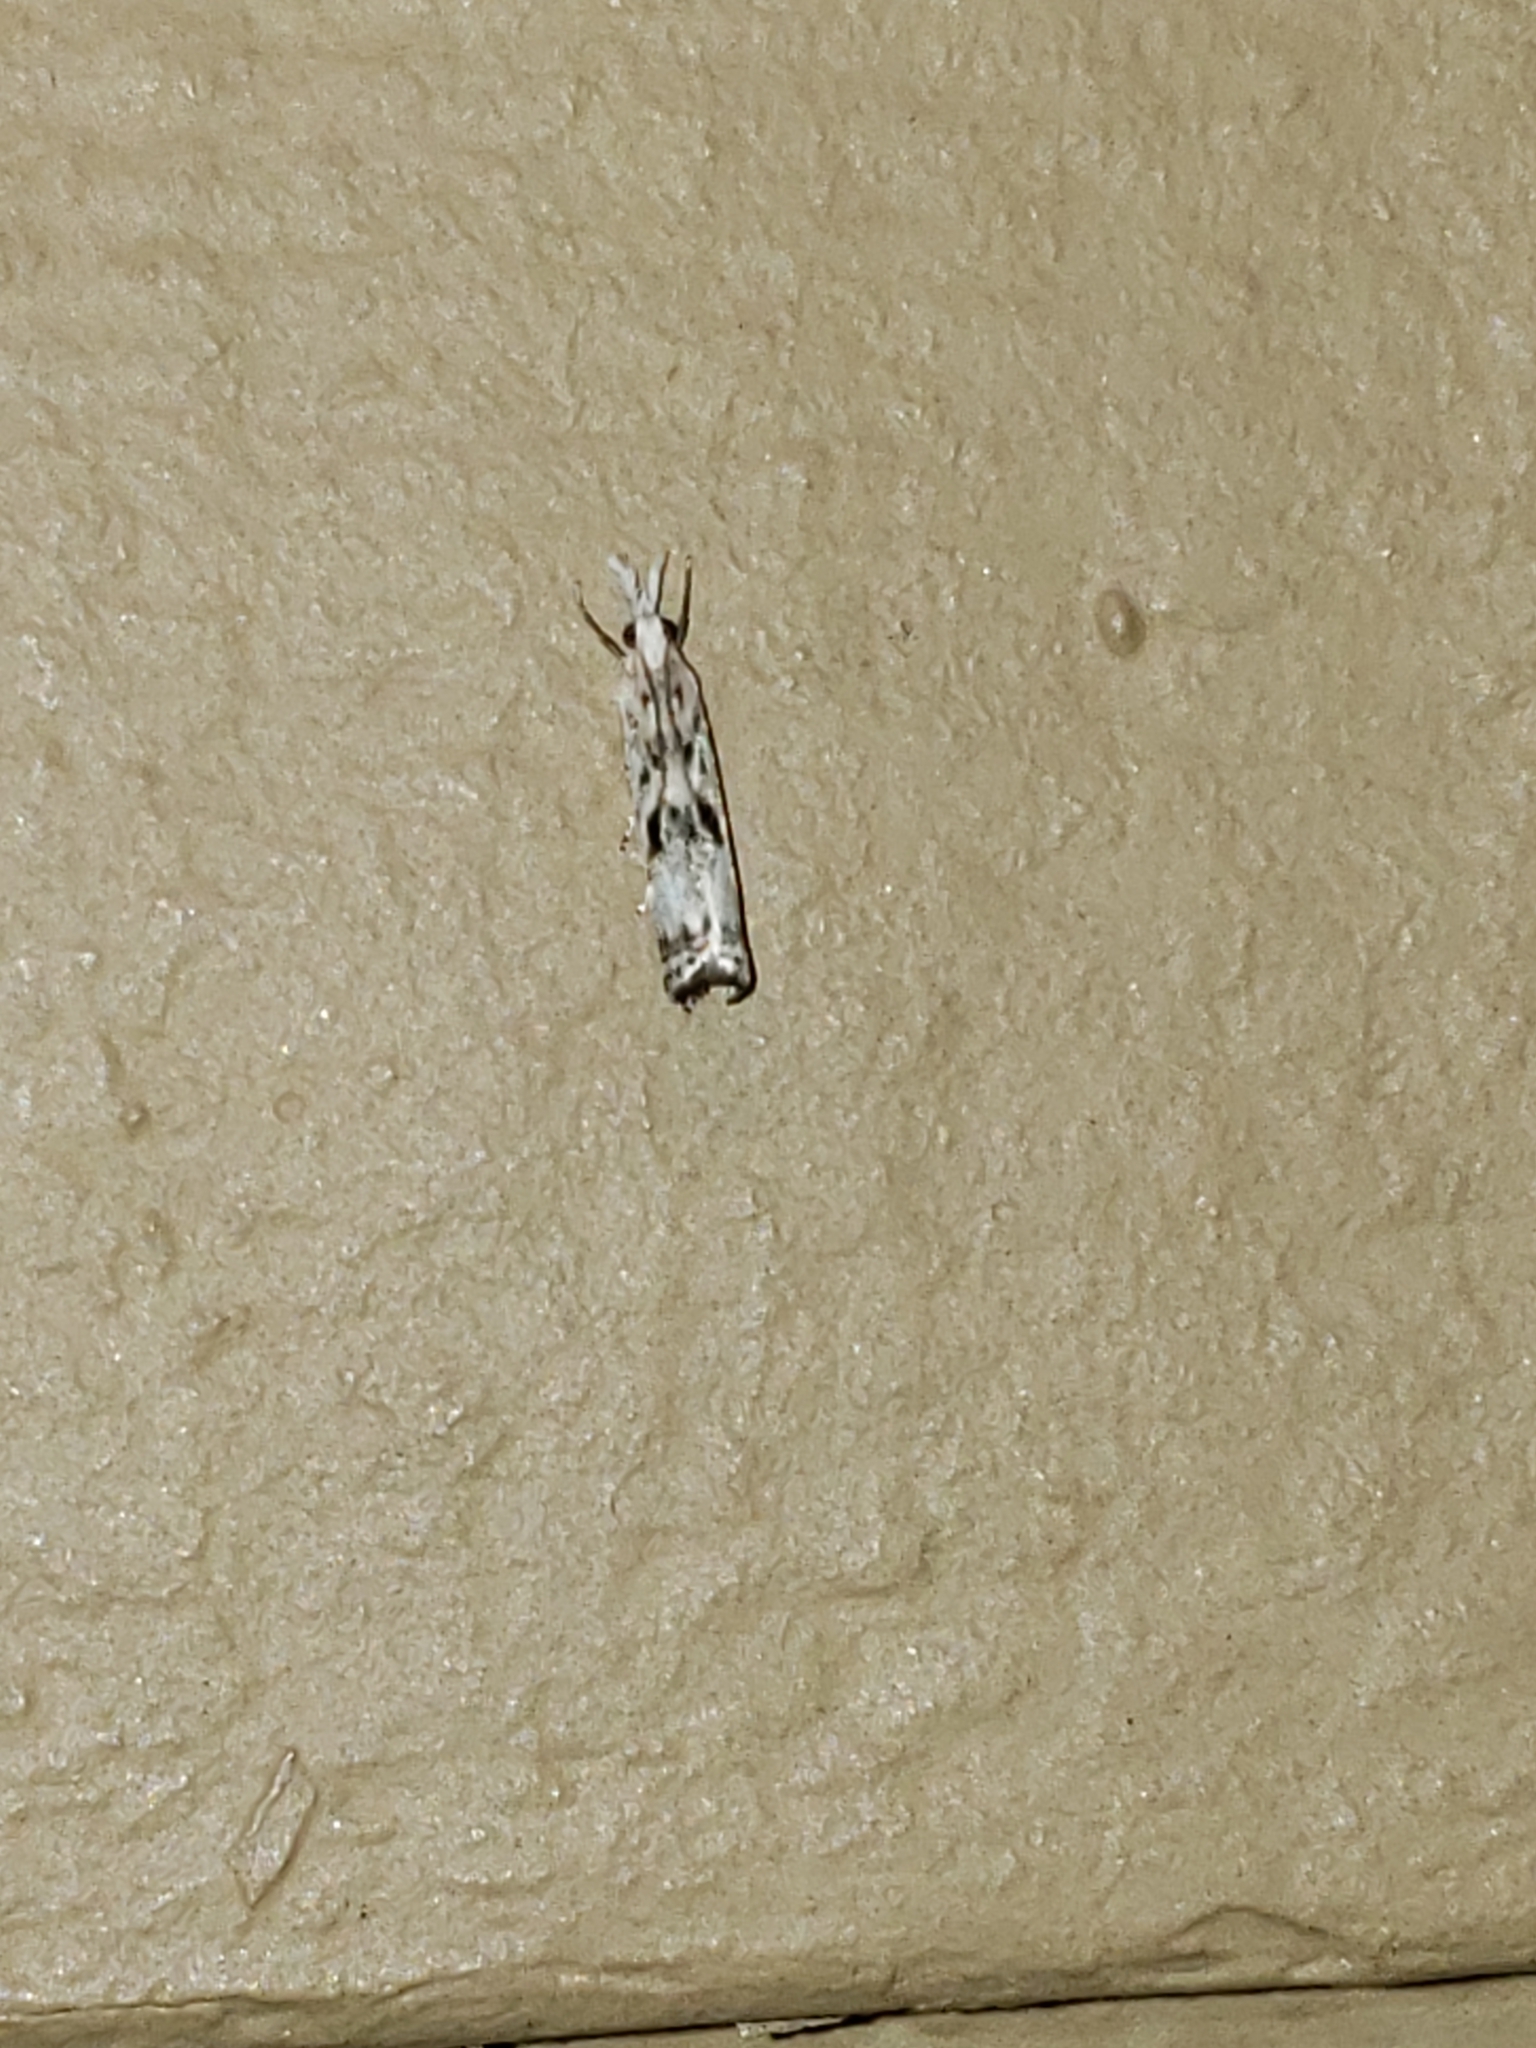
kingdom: Animalia
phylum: Arthropoda
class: Insecta
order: Lepidoptera
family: Crambidae
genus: Microcrambus
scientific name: Microcrambus elegans
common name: Elegant grass-veneer
